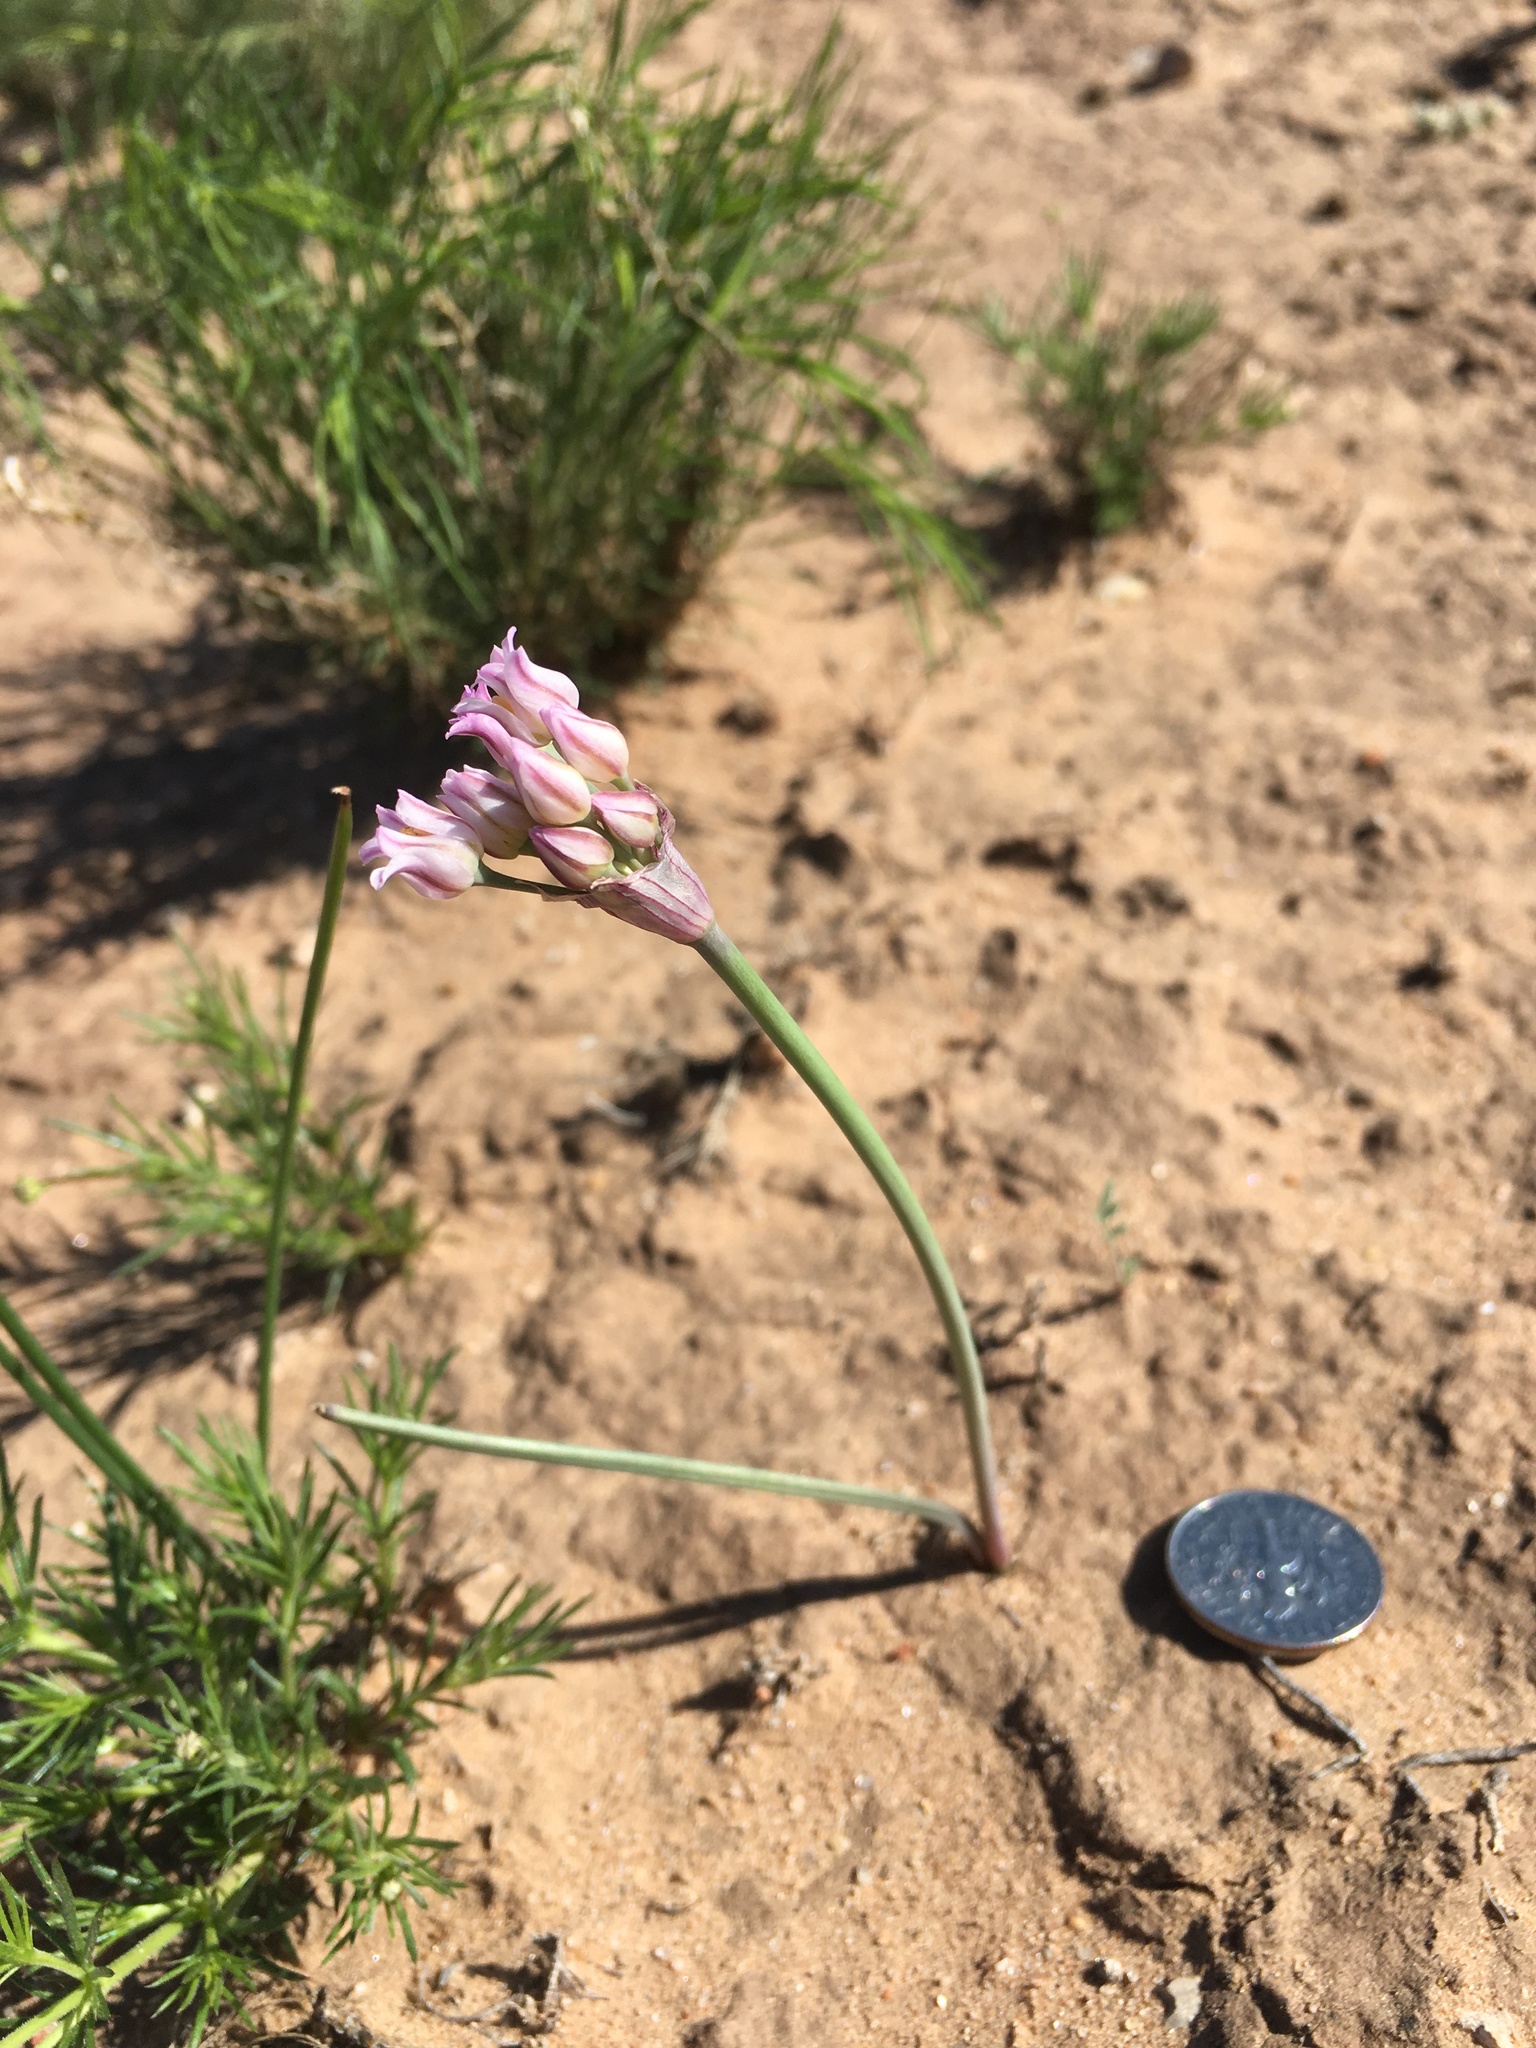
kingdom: Plantae
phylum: Tracheophyta
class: Liliopsida
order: Asparagales
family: Amaryllidaceae
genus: Allium
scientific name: Allium perdulce
